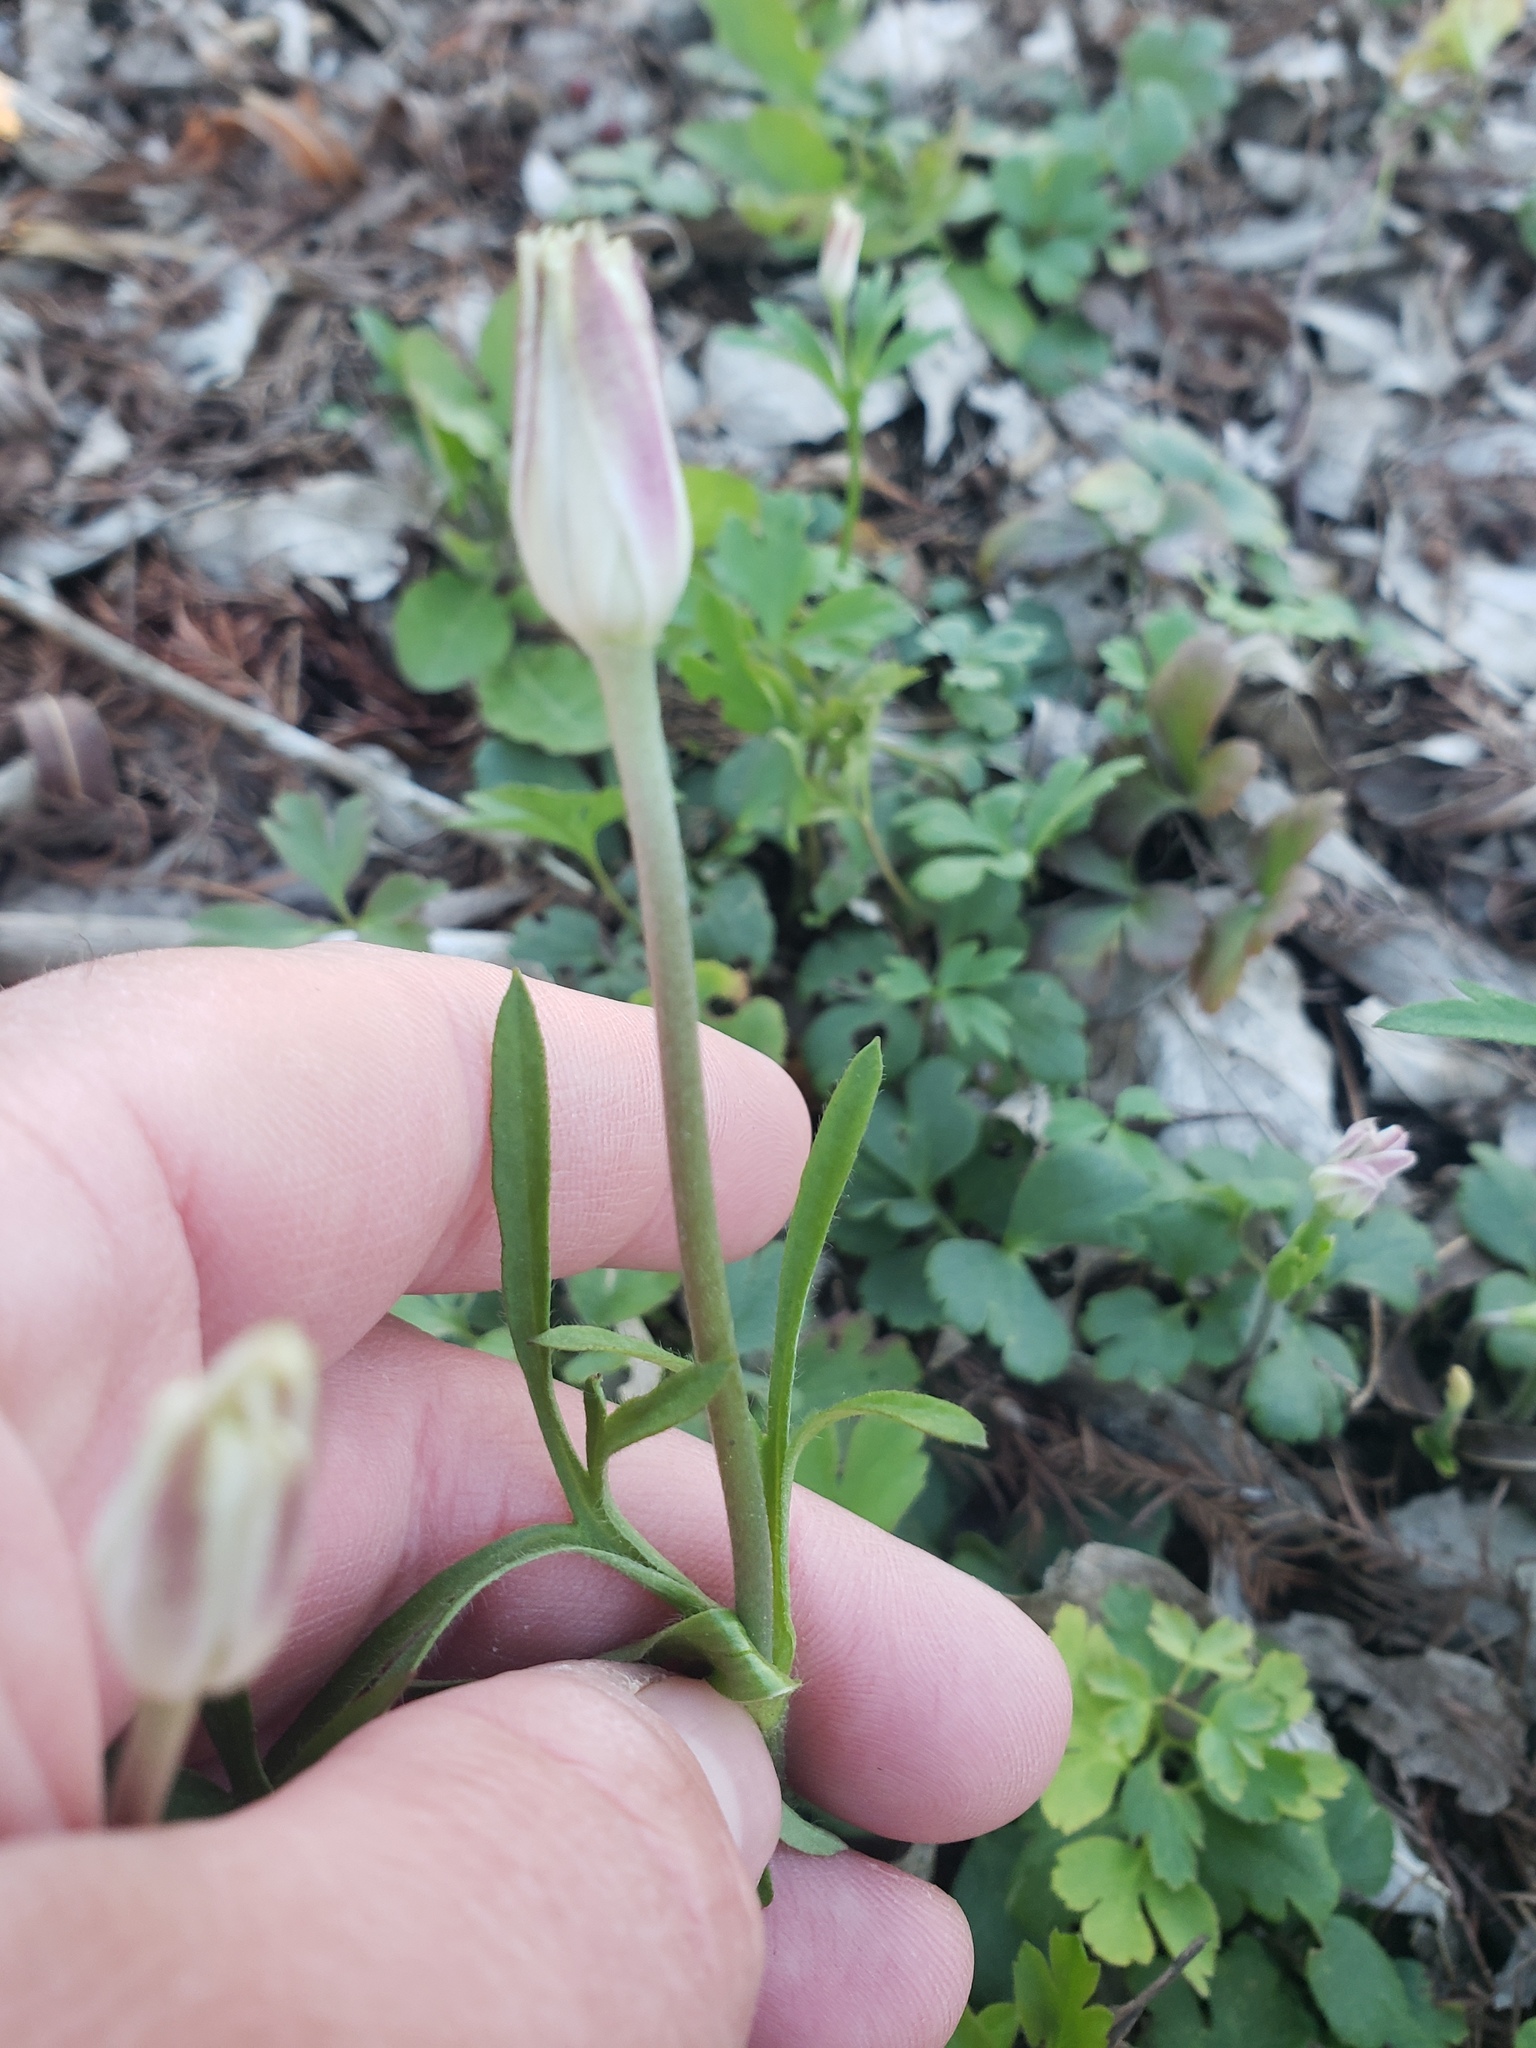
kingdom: Plantae
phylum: Tracheophyta
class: Magnoliopsida
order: Ranunculales
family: Ranunculaceae
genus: Anemone
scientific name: Anemone berlandieri
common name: Ten-petal anemone
